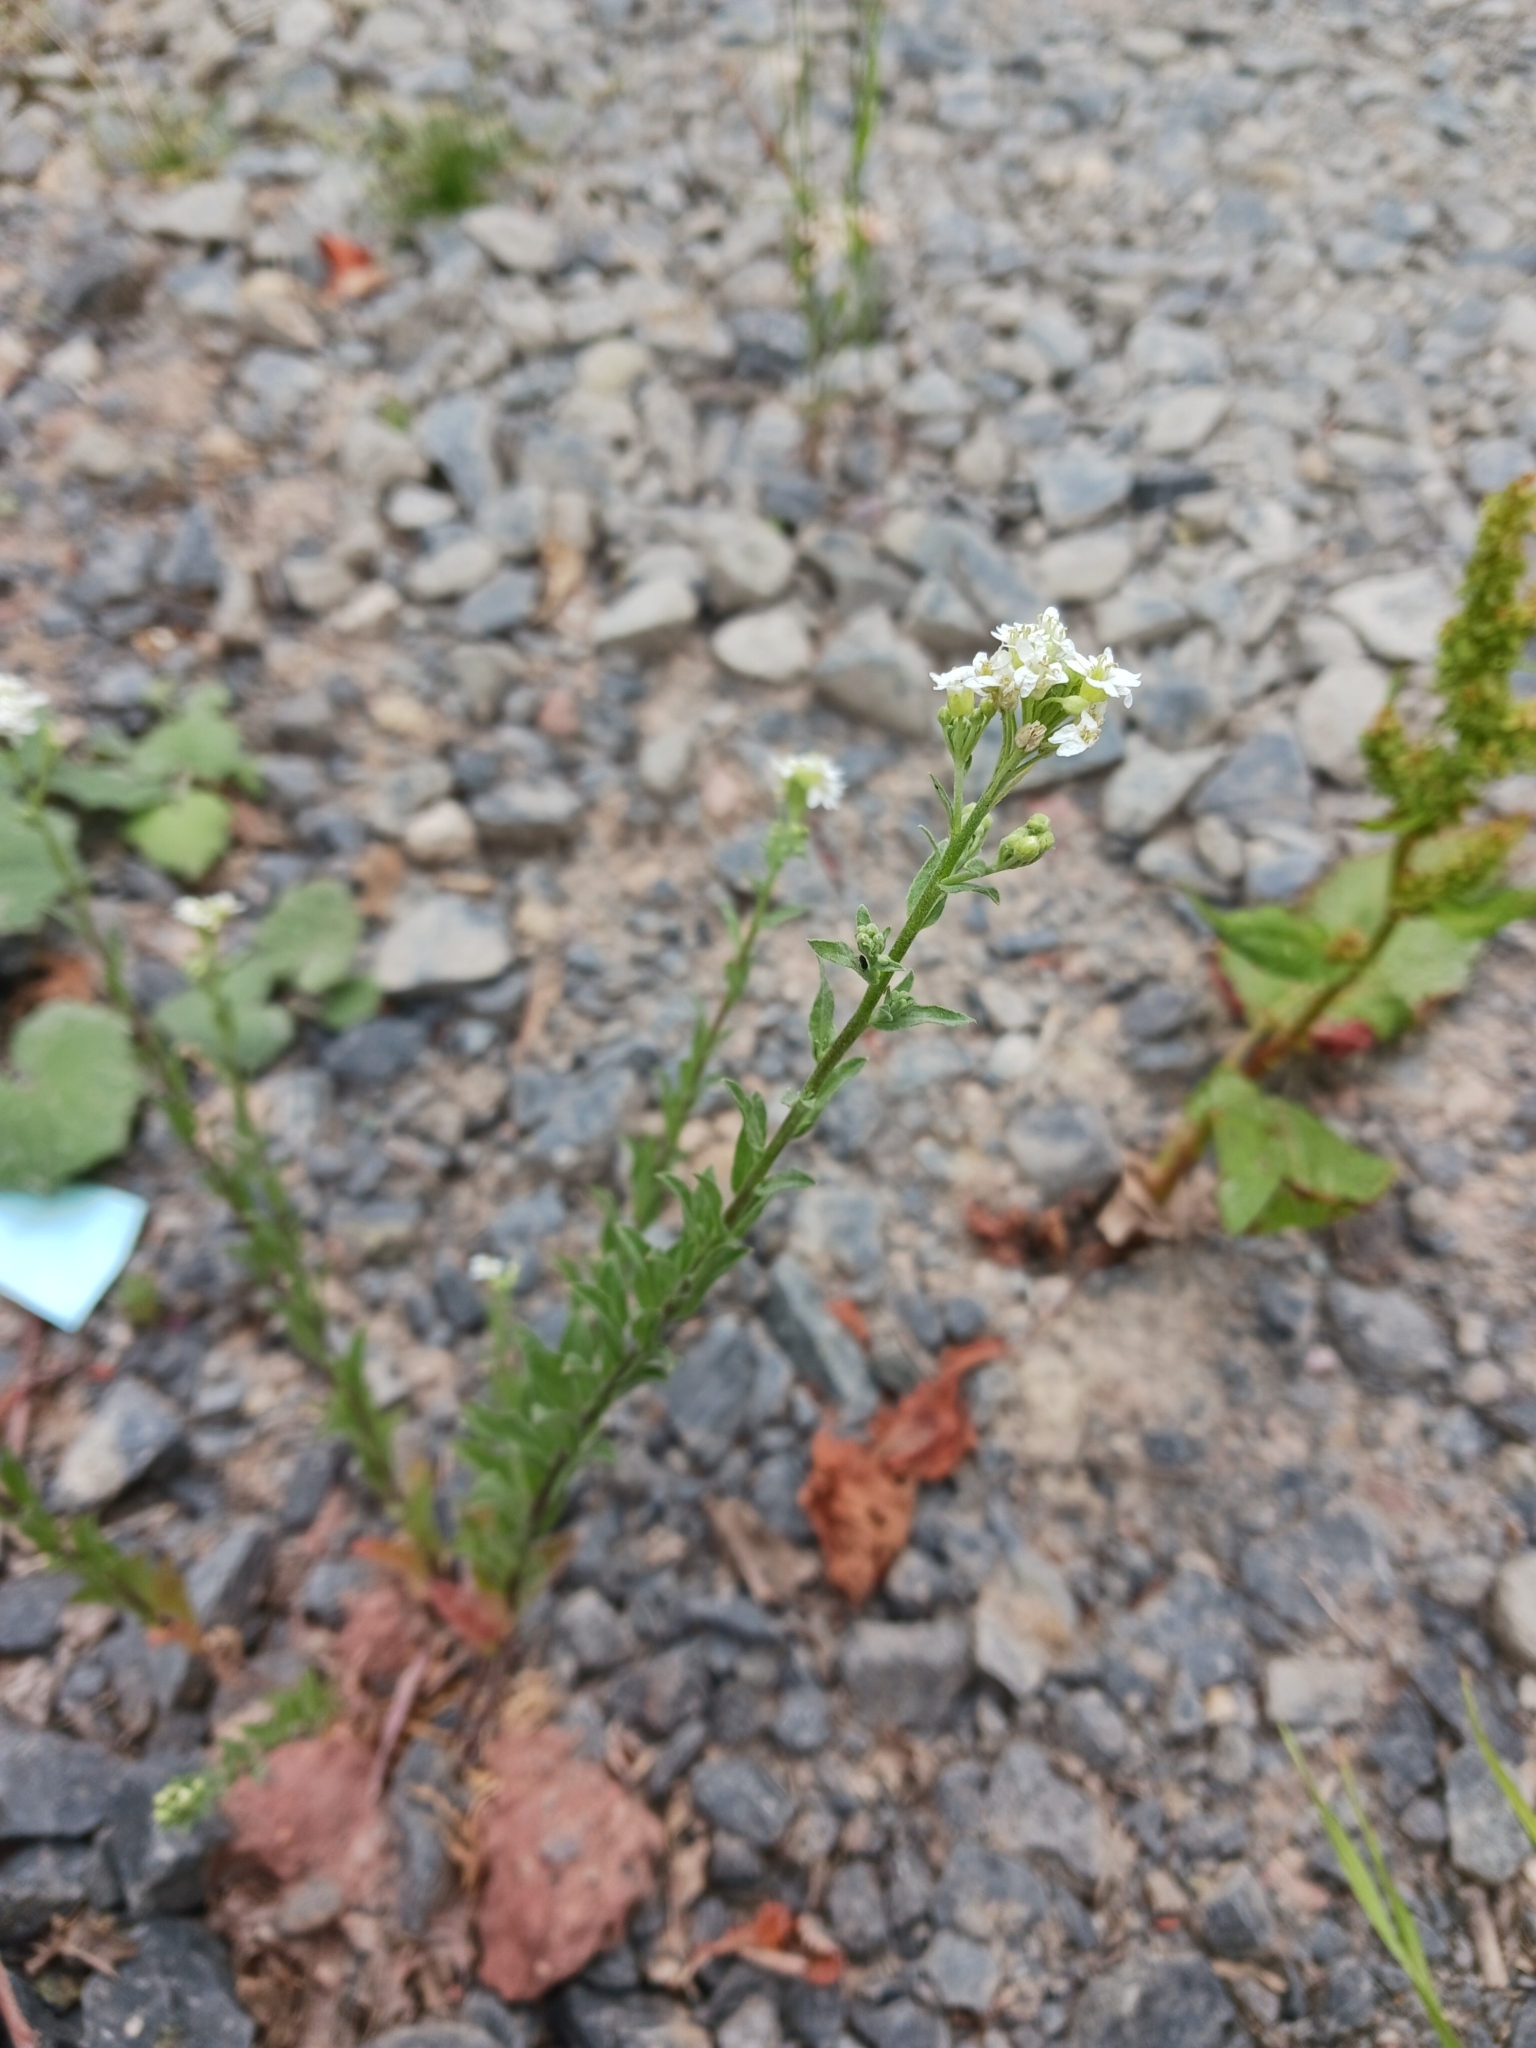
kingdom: Plantae
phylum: Tracheophyta
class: Magnoliopsida
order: Brassicales
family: Brassicaceae
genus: Berteroa
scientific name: Berteroa incana
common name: Hoary alison
